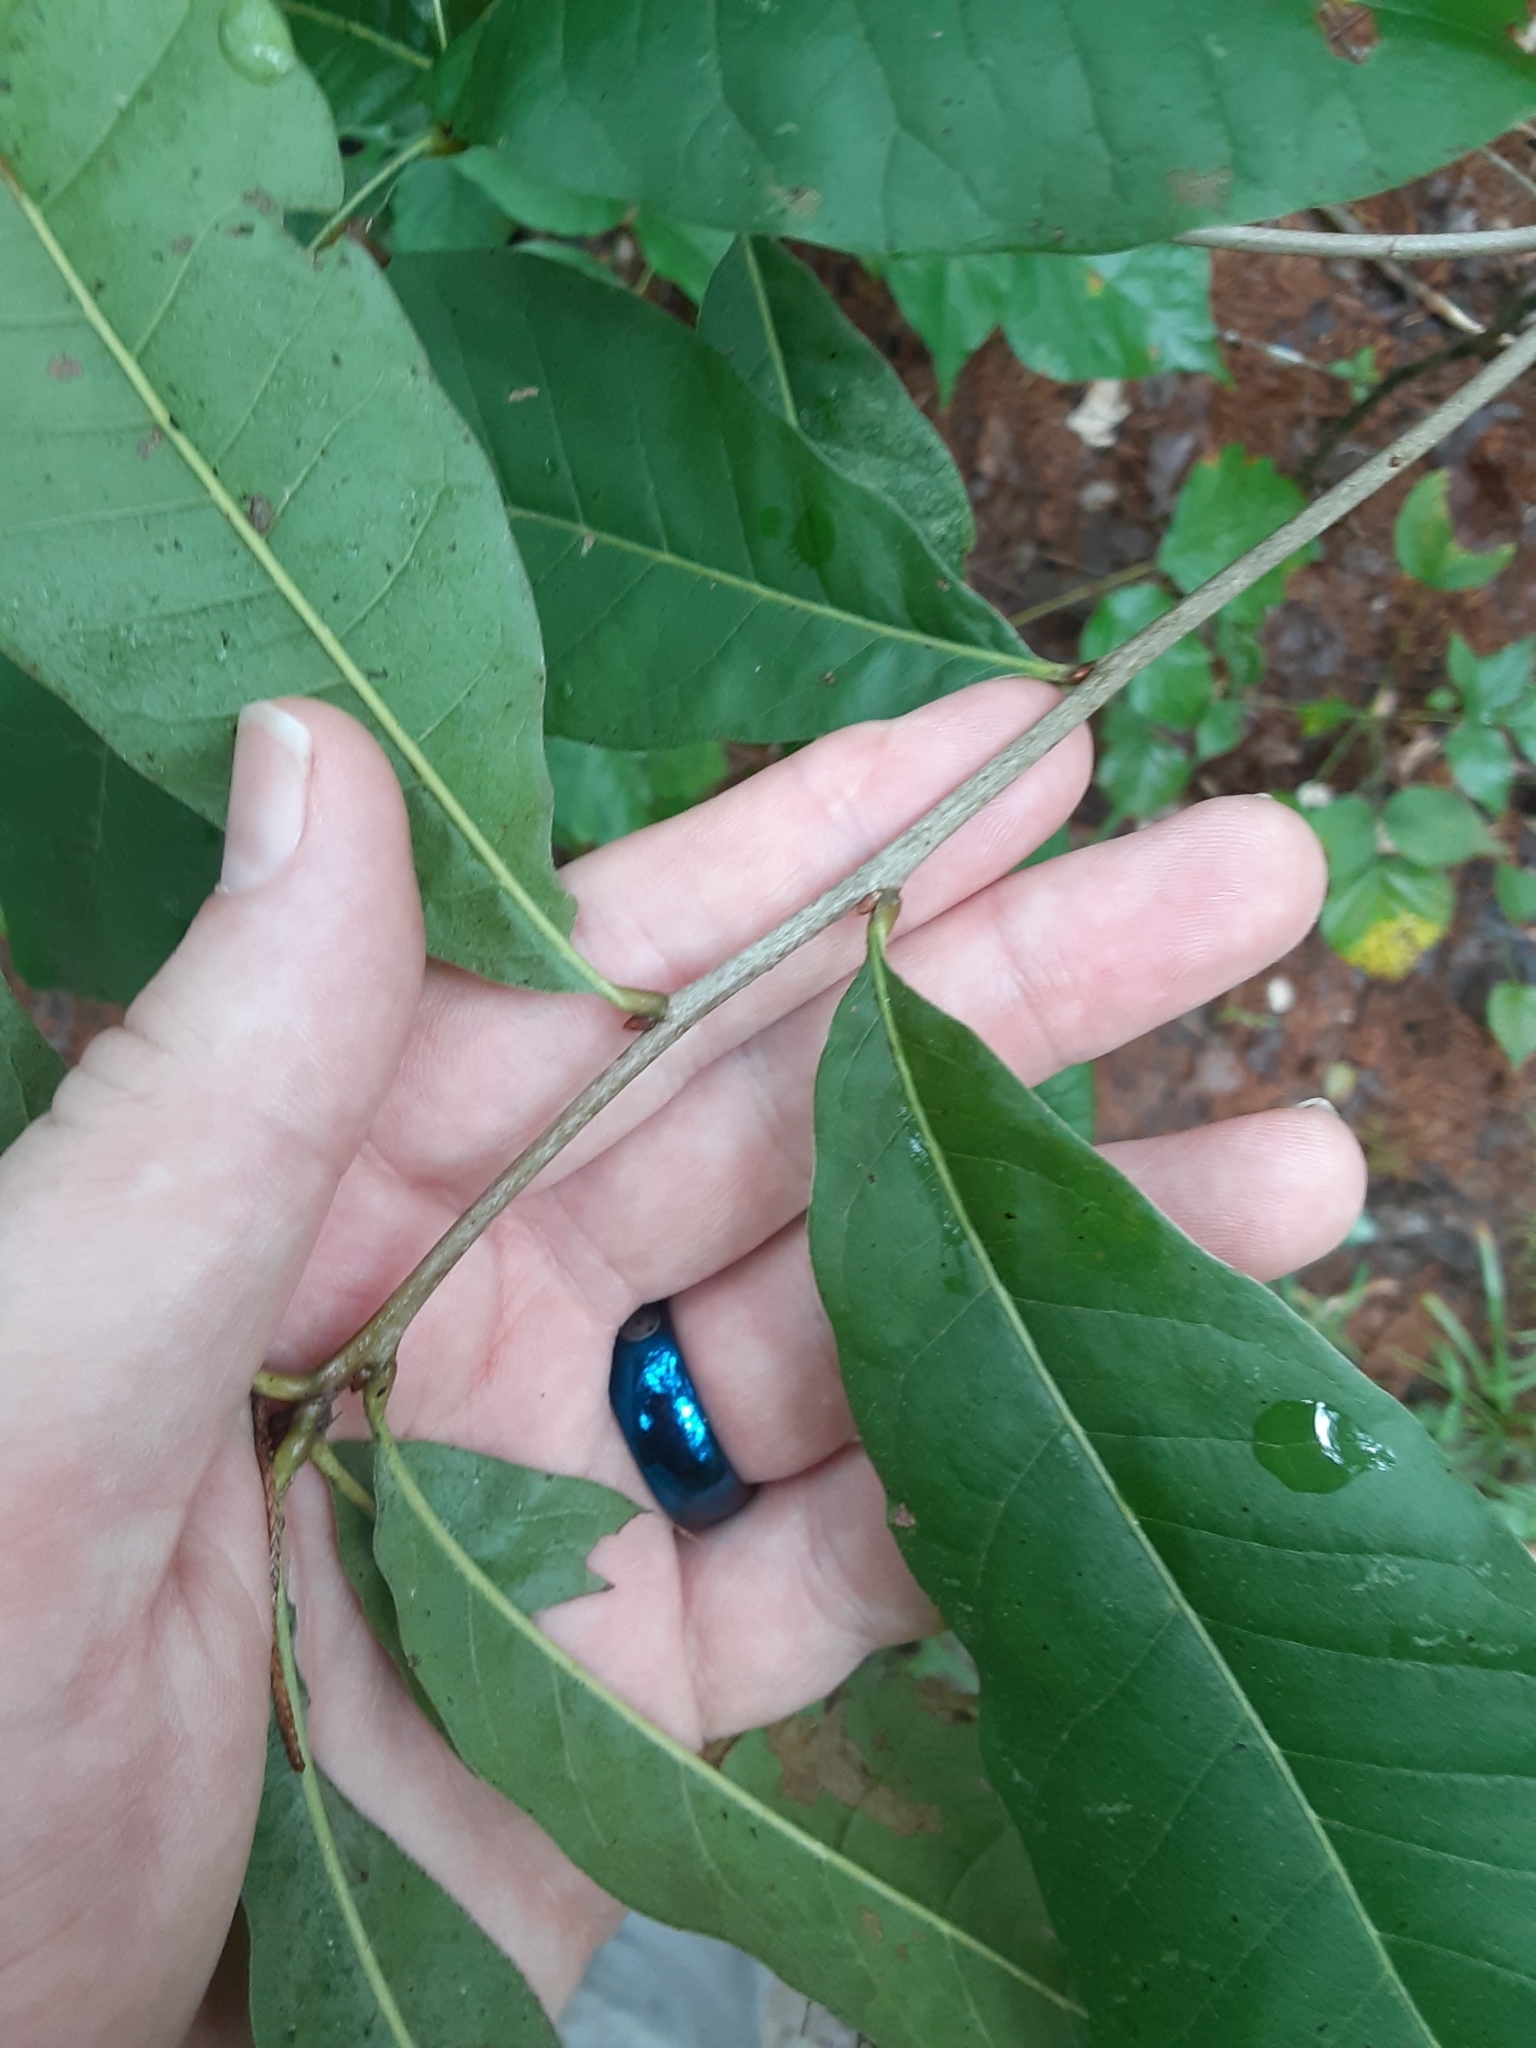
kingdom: Plantae
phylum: Tracheophyta
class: Magnoliopsida
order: Fagales
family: Fagaceae
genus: Quercus
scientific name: Quercus imbricaria
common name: Shingle oak
